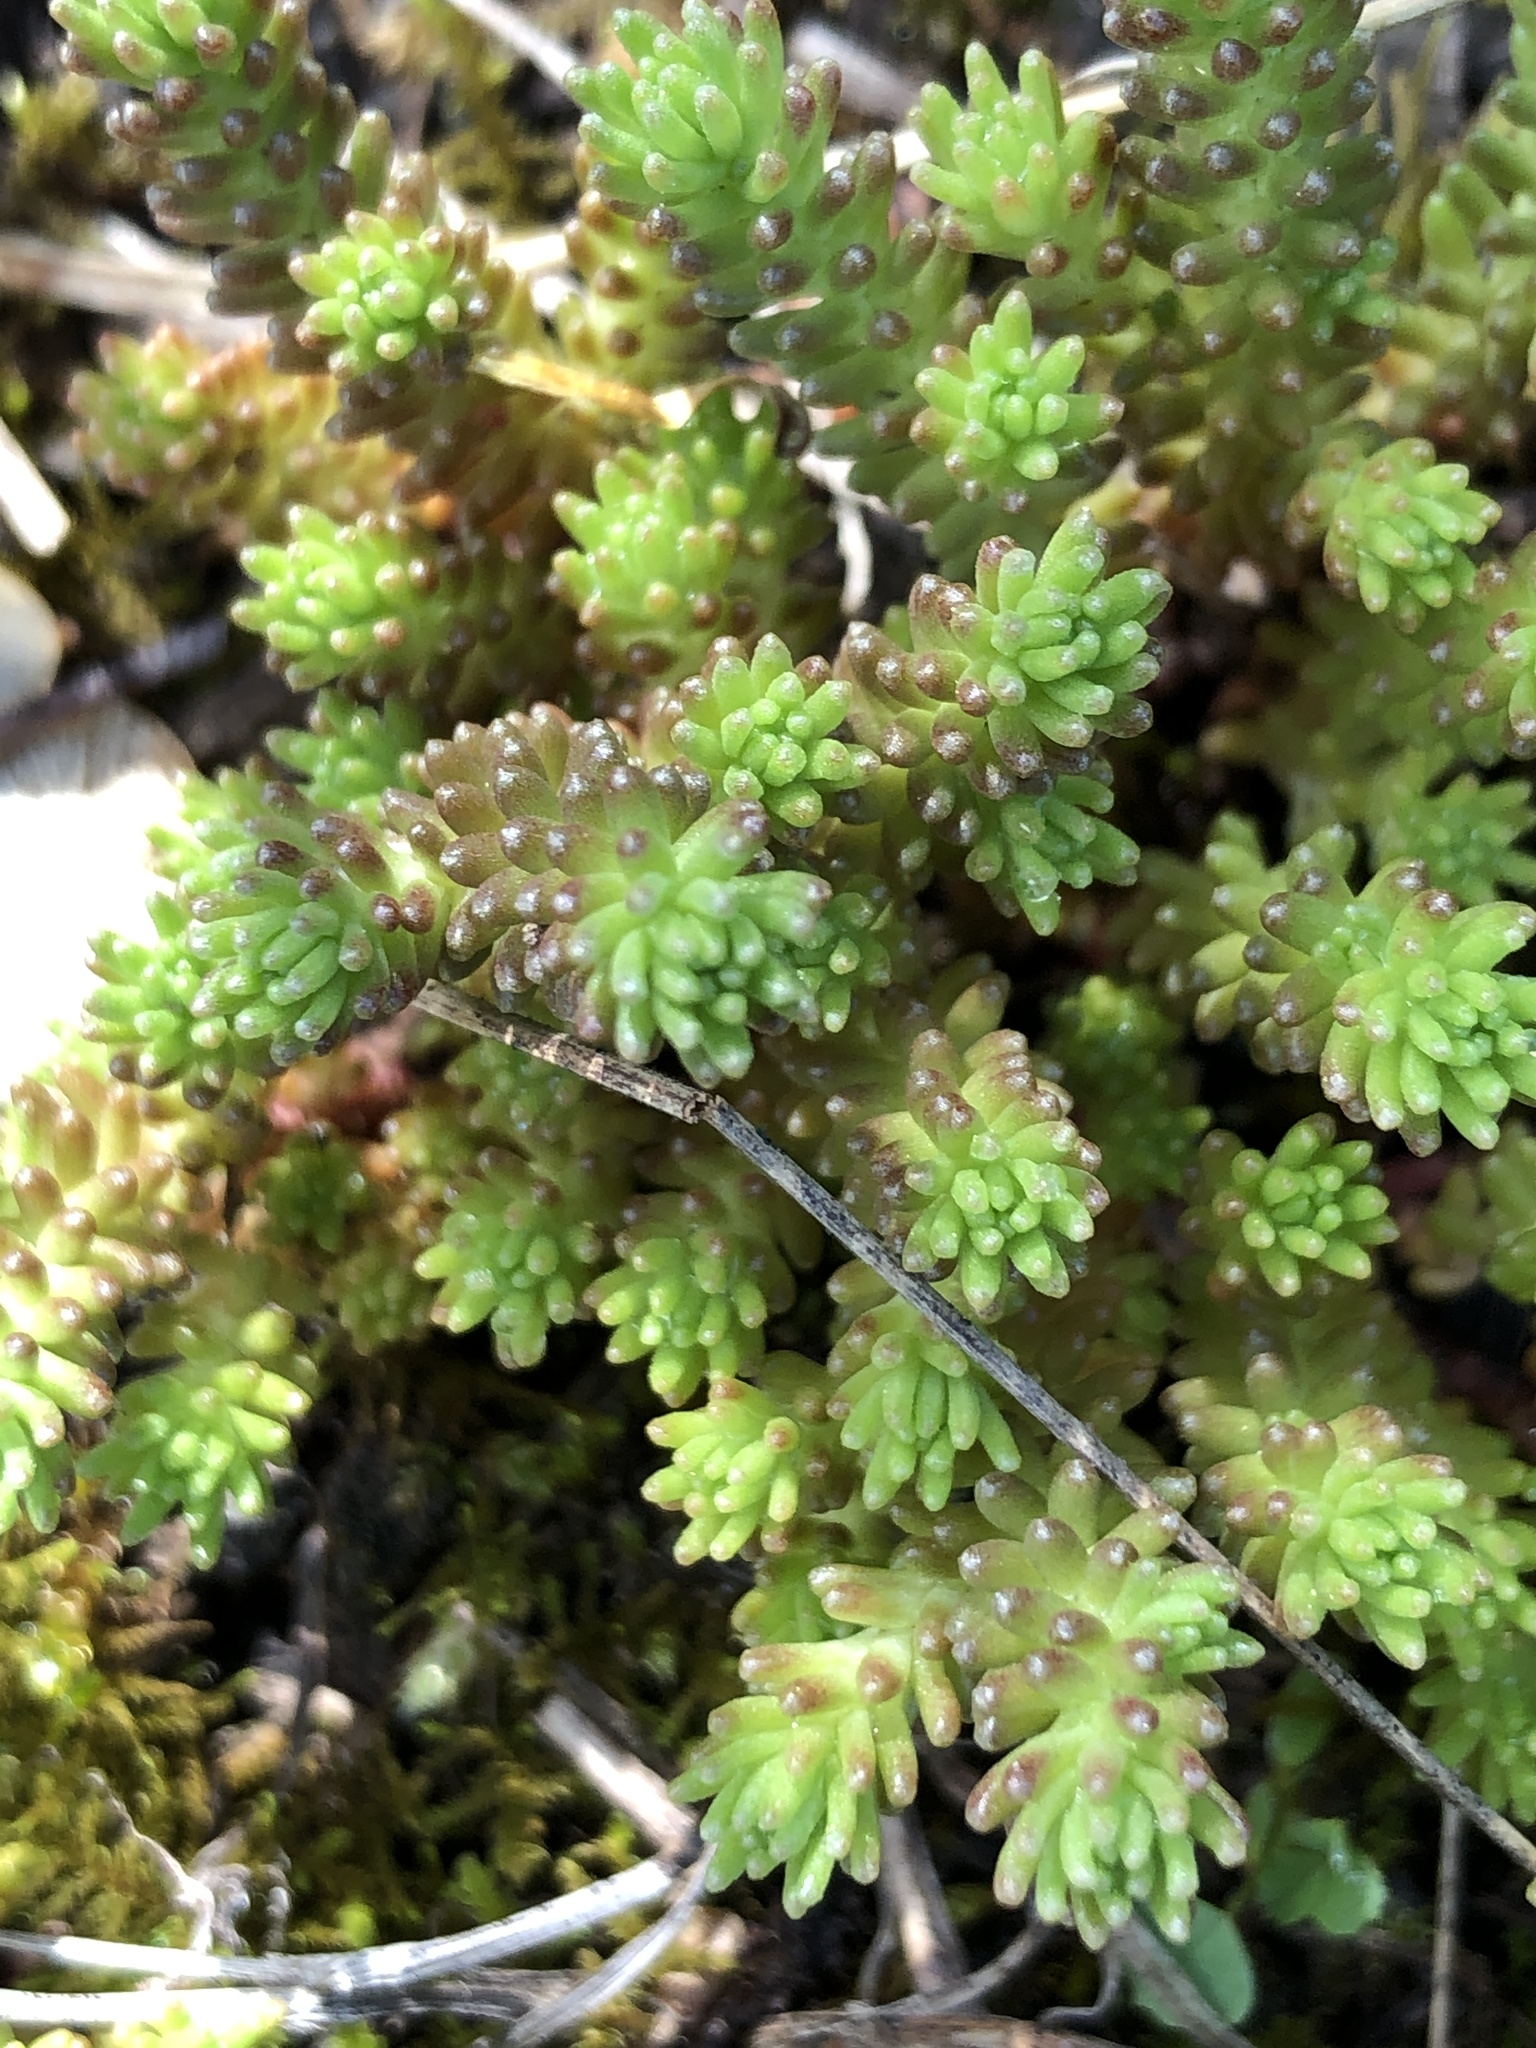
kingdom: Plantae
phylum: Tracheophyta
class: Magnoliopsida
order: Saxifragales
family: Crassulaceae
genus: Sedum
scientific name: Sedum sexangulare
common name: Tasteless stonecrop
